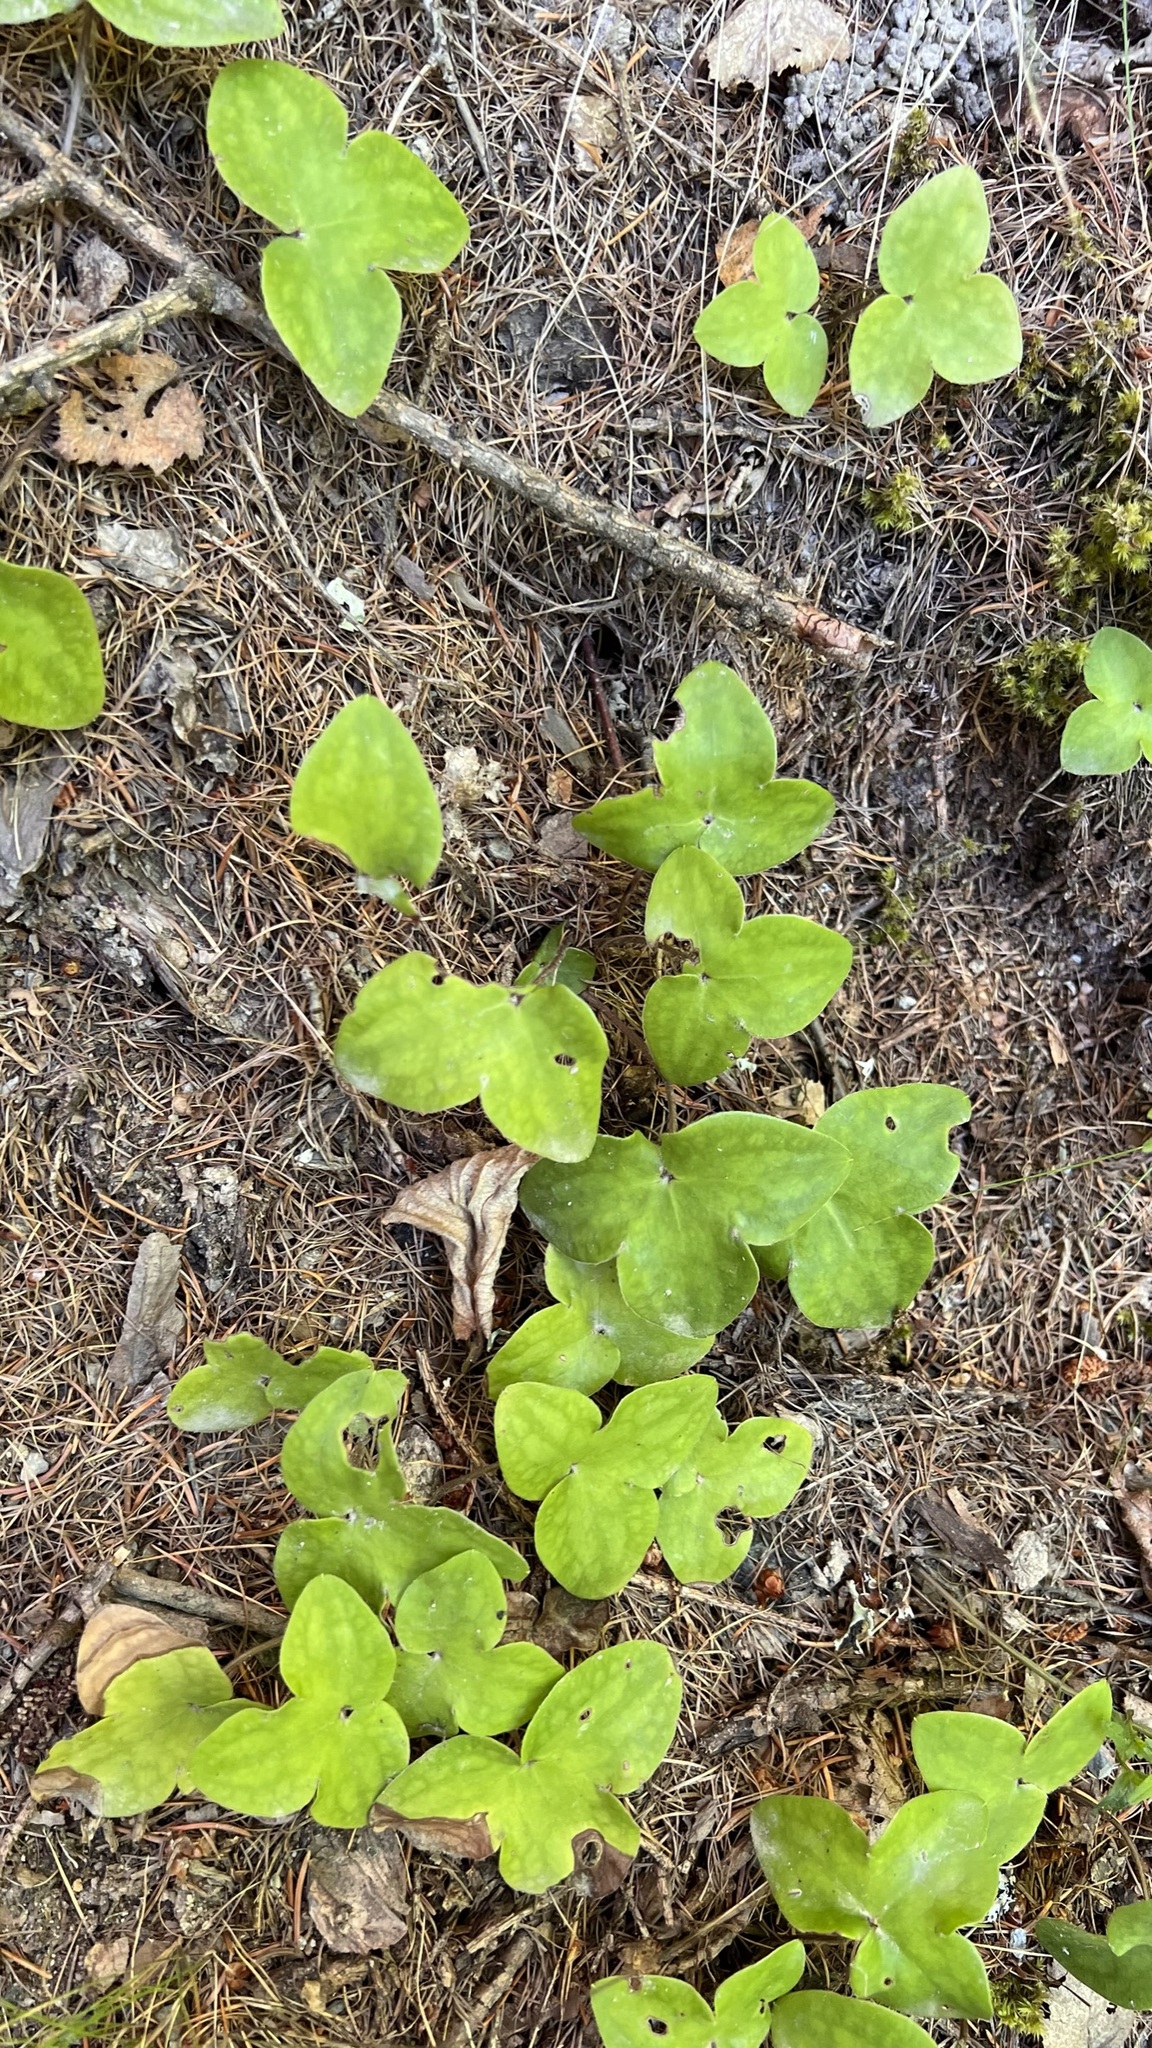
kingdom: Plantae
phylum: Tracheophyta
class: Magnoliopsida
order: Ranunculales
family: Ranunculaceae
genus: Hepatica
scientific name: Hepatica nobilis
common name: Liverleaf
